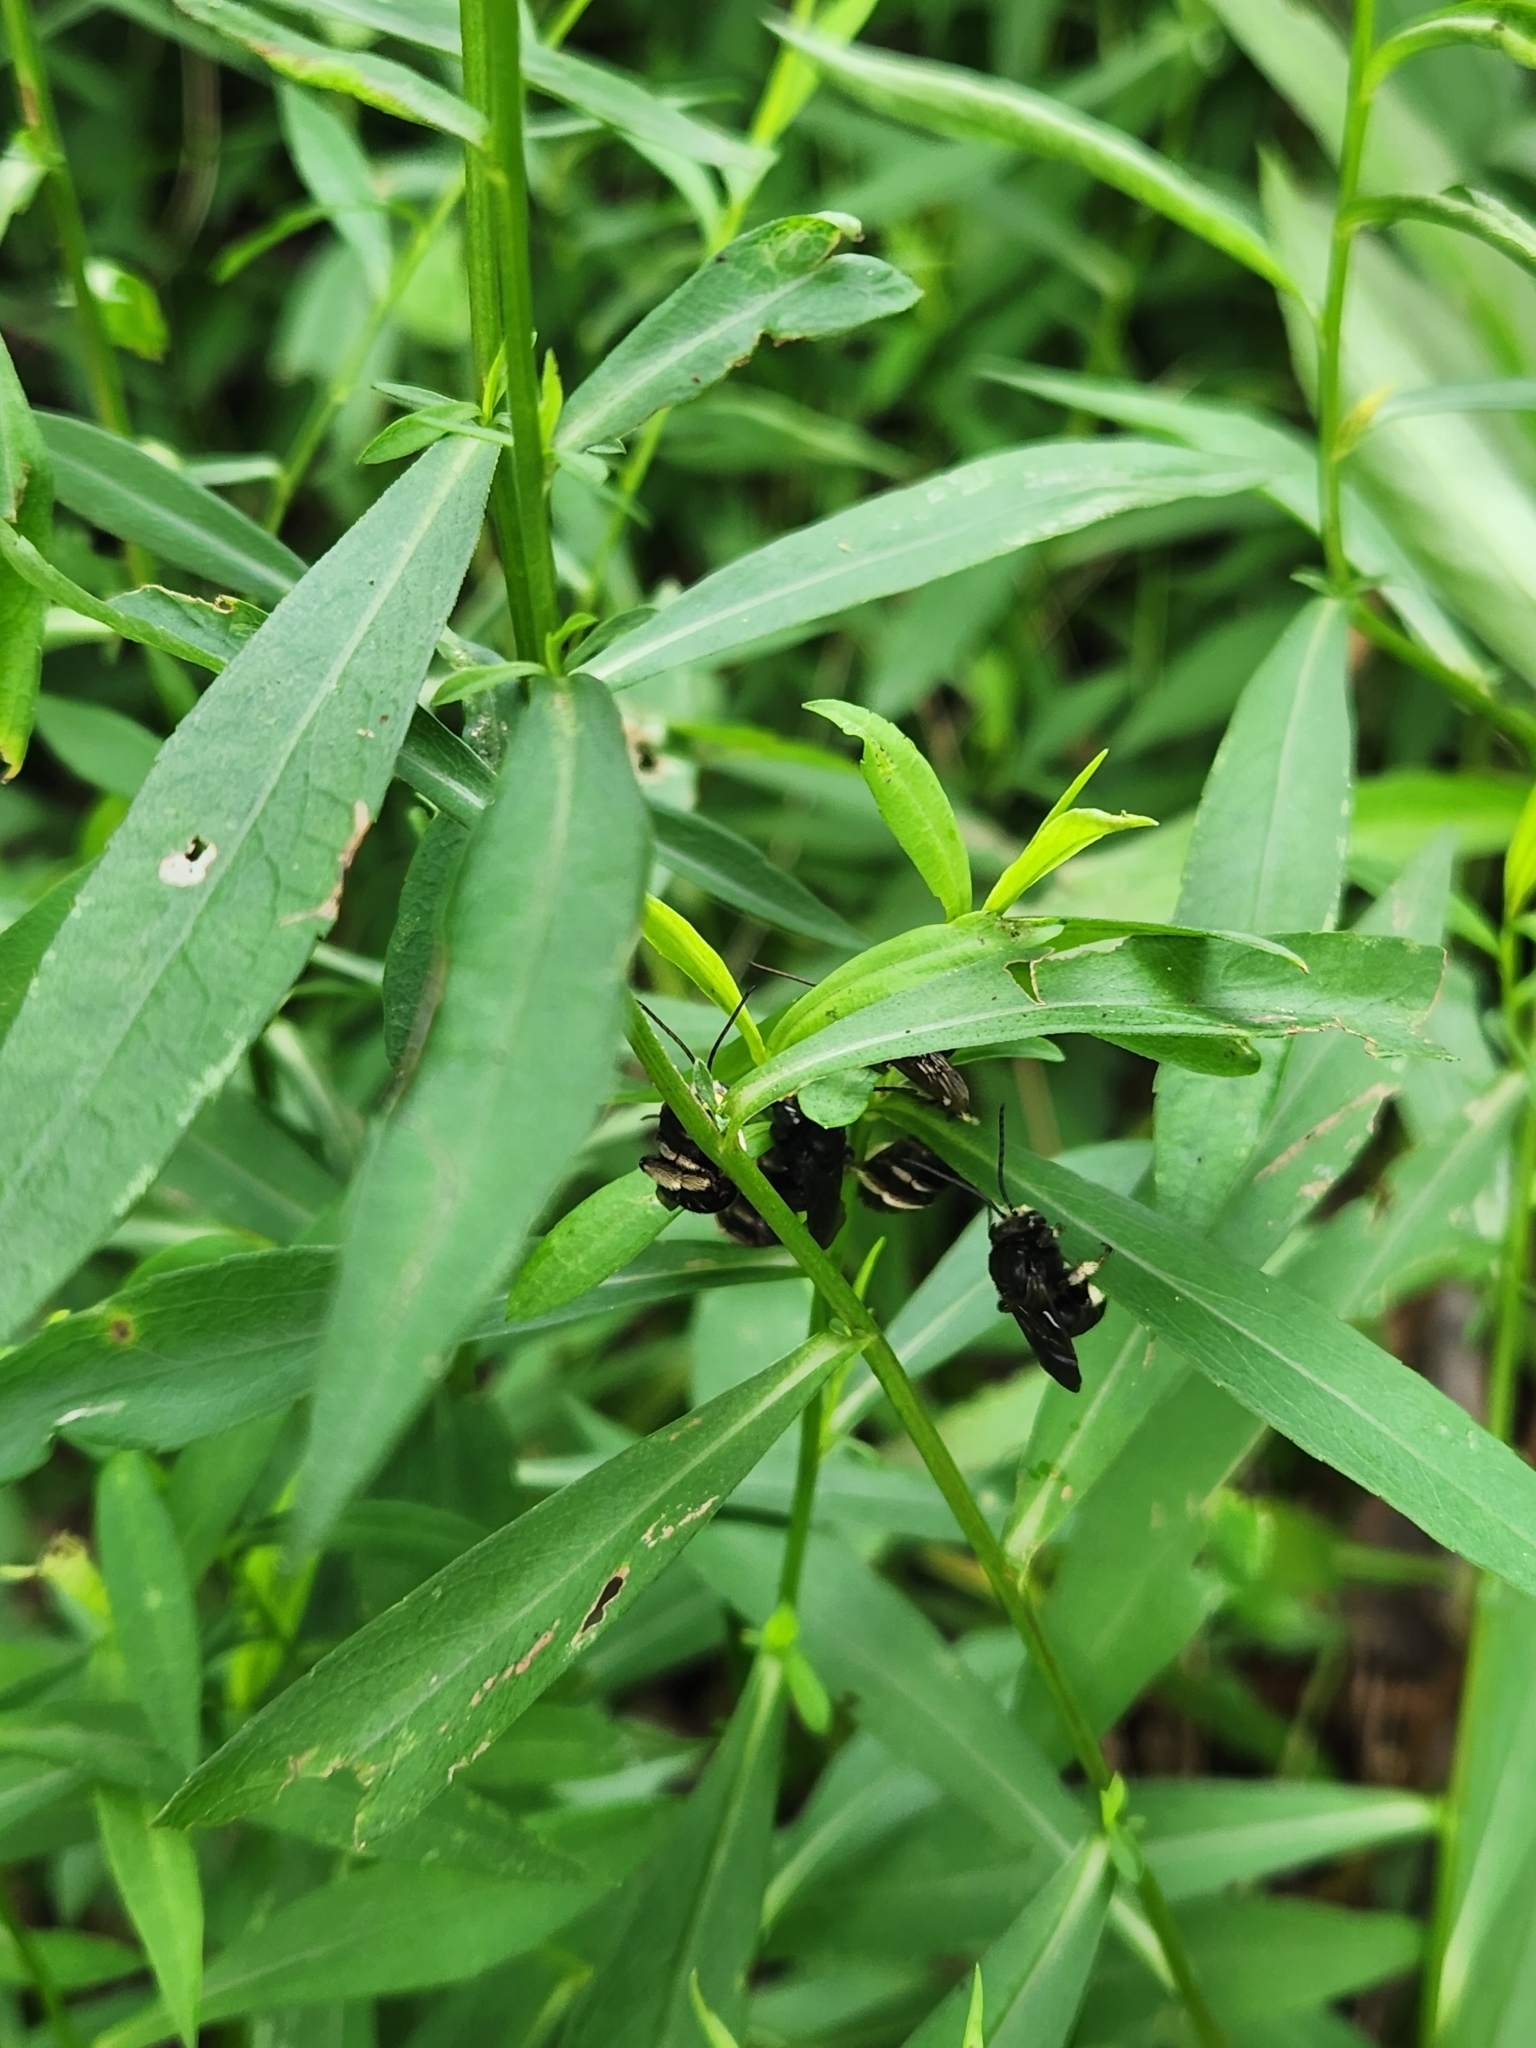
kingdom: Animalia
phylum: Arthropoda
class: Insecta
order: Hymenoptera
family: Apidae
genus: Melissodes
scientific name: Melissodes bimaculatus
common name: Two-spotted long-horned bee
